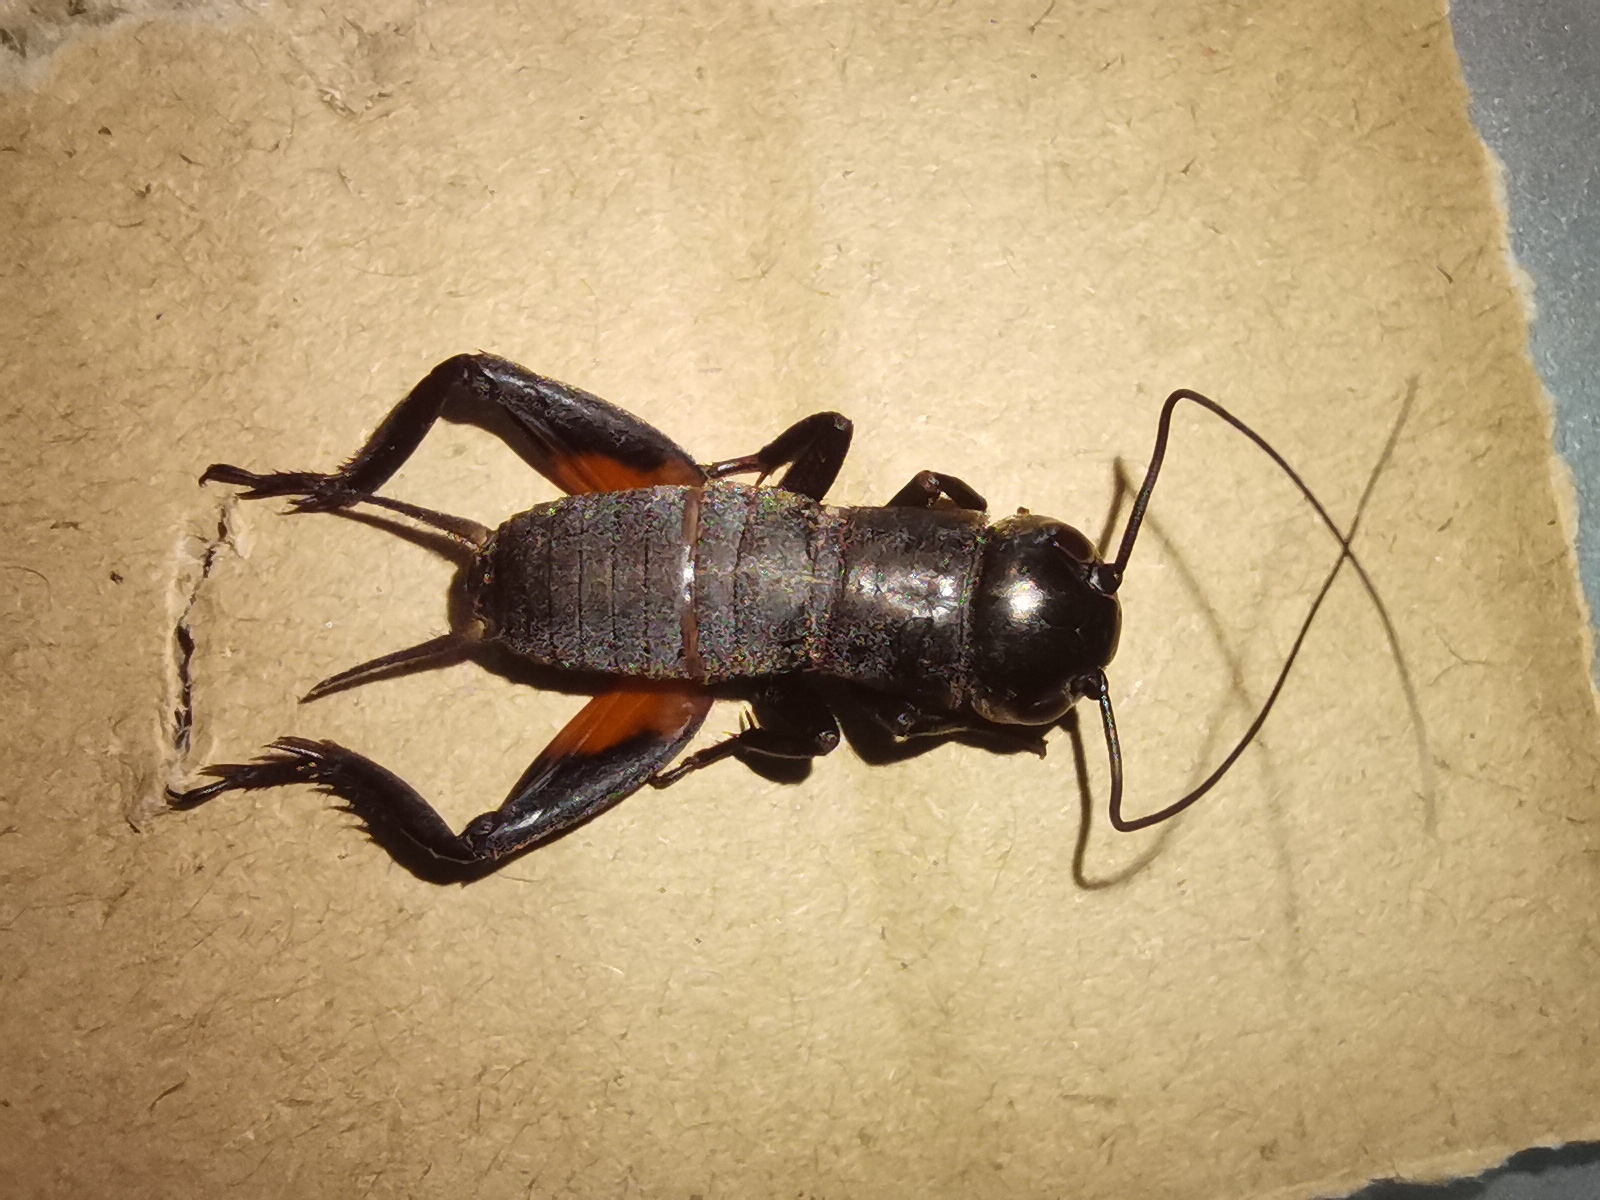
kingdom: Animalia
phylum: Arthropoda
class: Insecta
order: Orthoptera
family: Gryllidae
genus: Gryllus
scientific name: Gryllus campestris
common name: Field cricket
